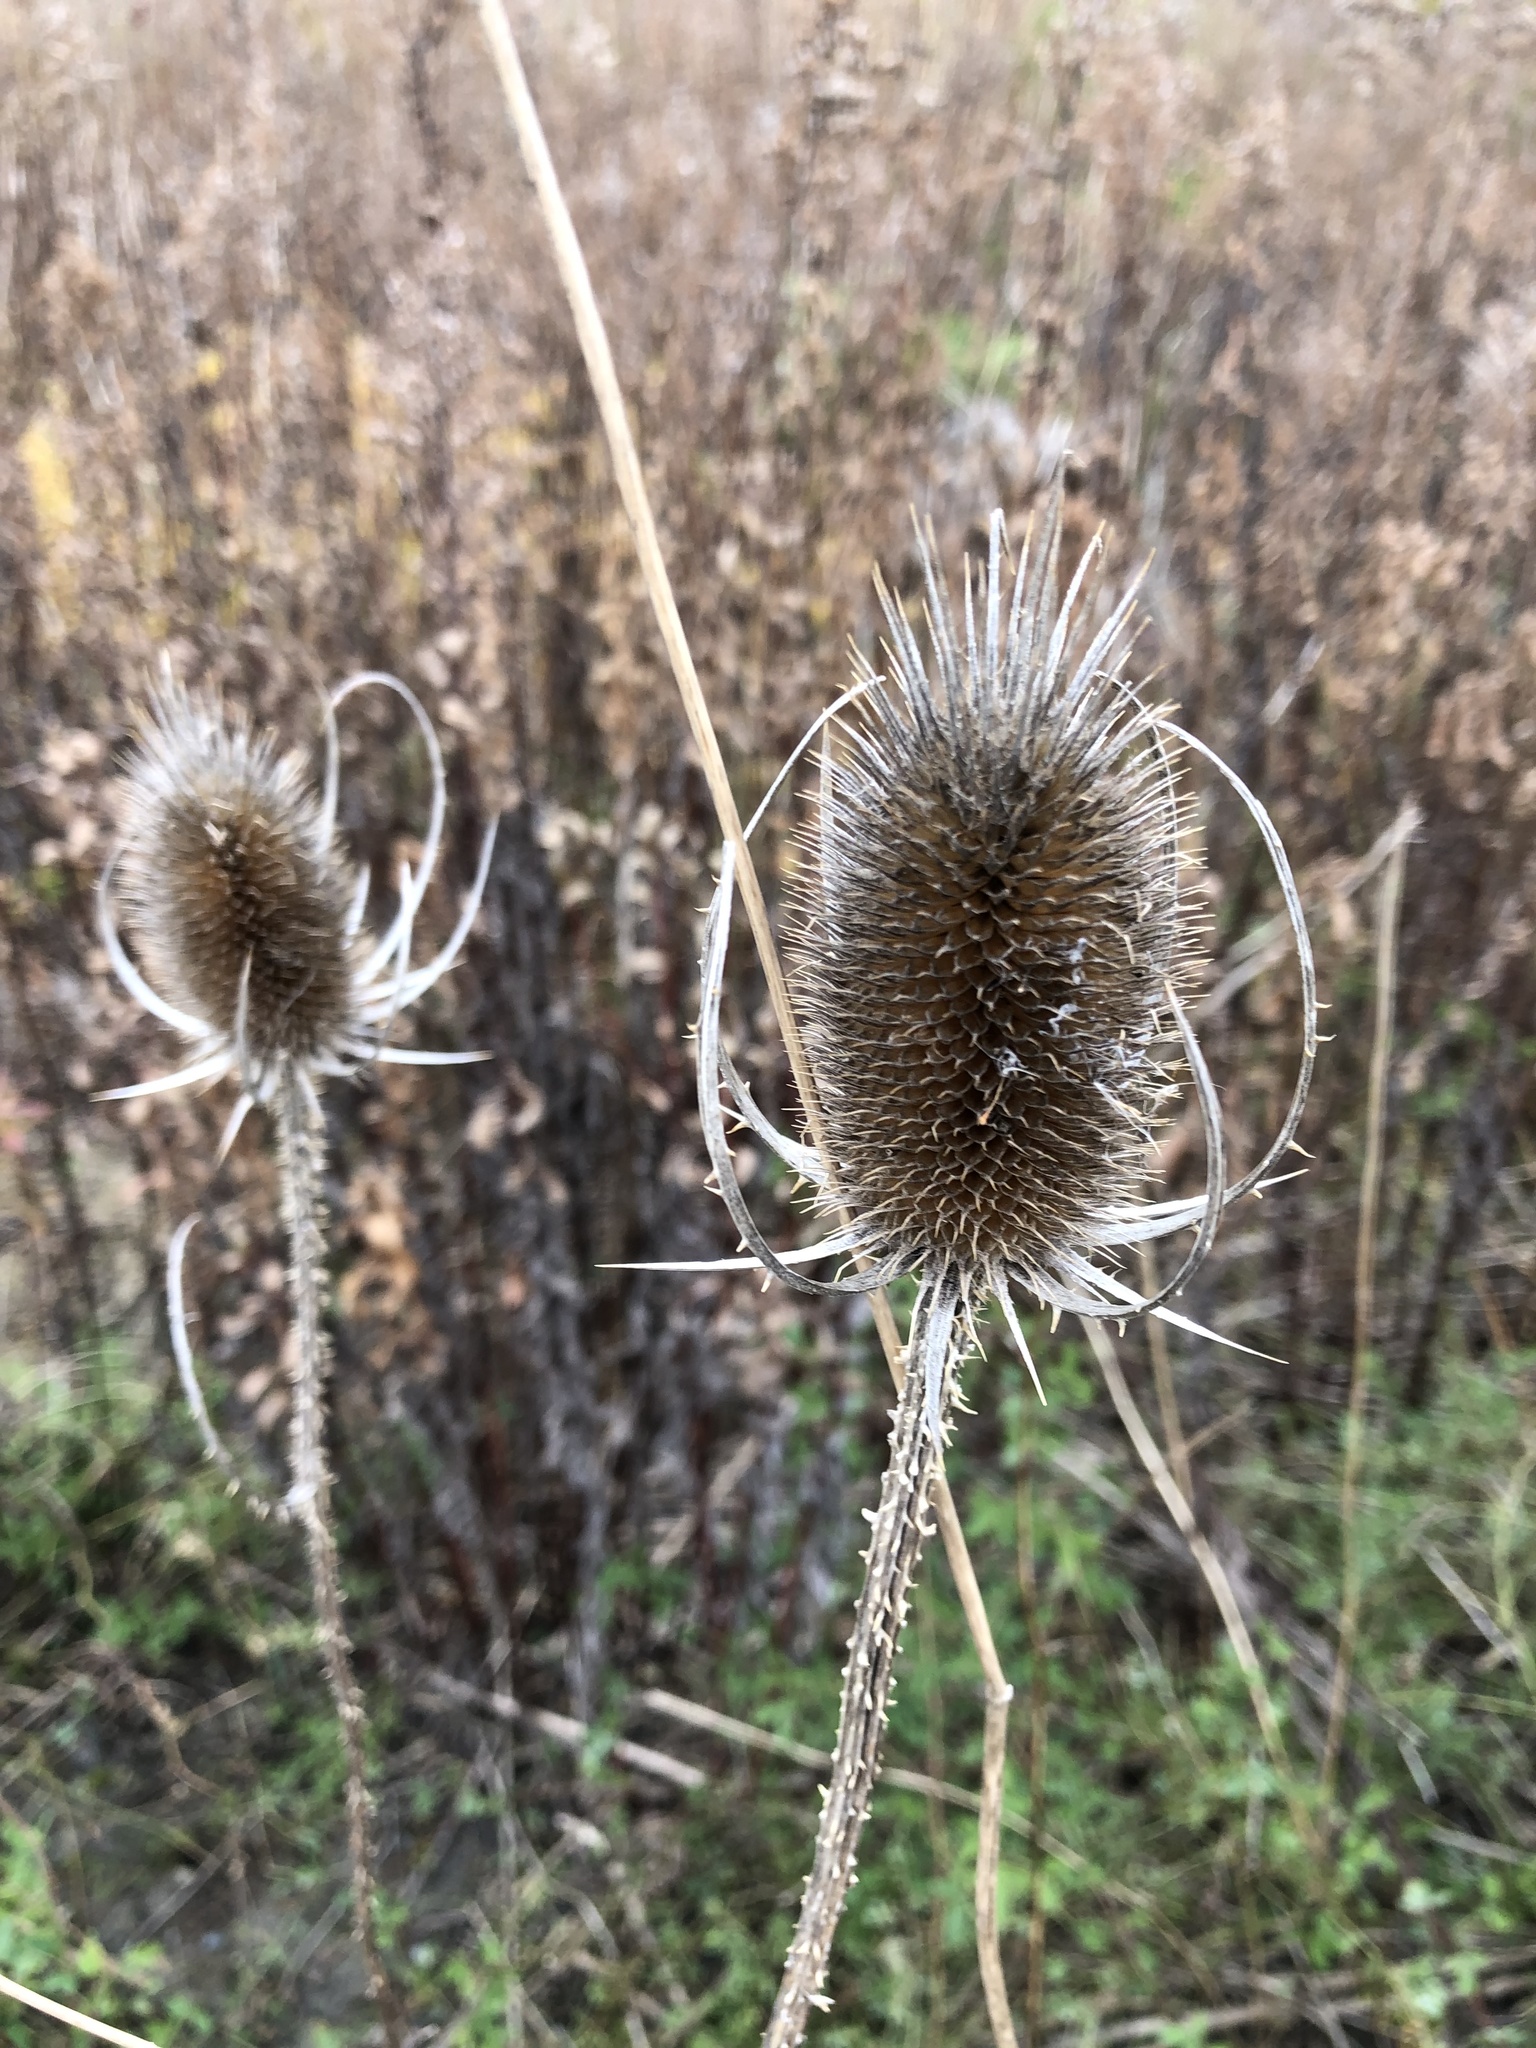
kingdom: Plantae
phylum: Tracheophyta
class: Magnoliopsida
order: Dipsacales
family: Caprifoliaceae
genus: Dipsacus
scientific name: Dipsacus fullonum
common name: Teasel
